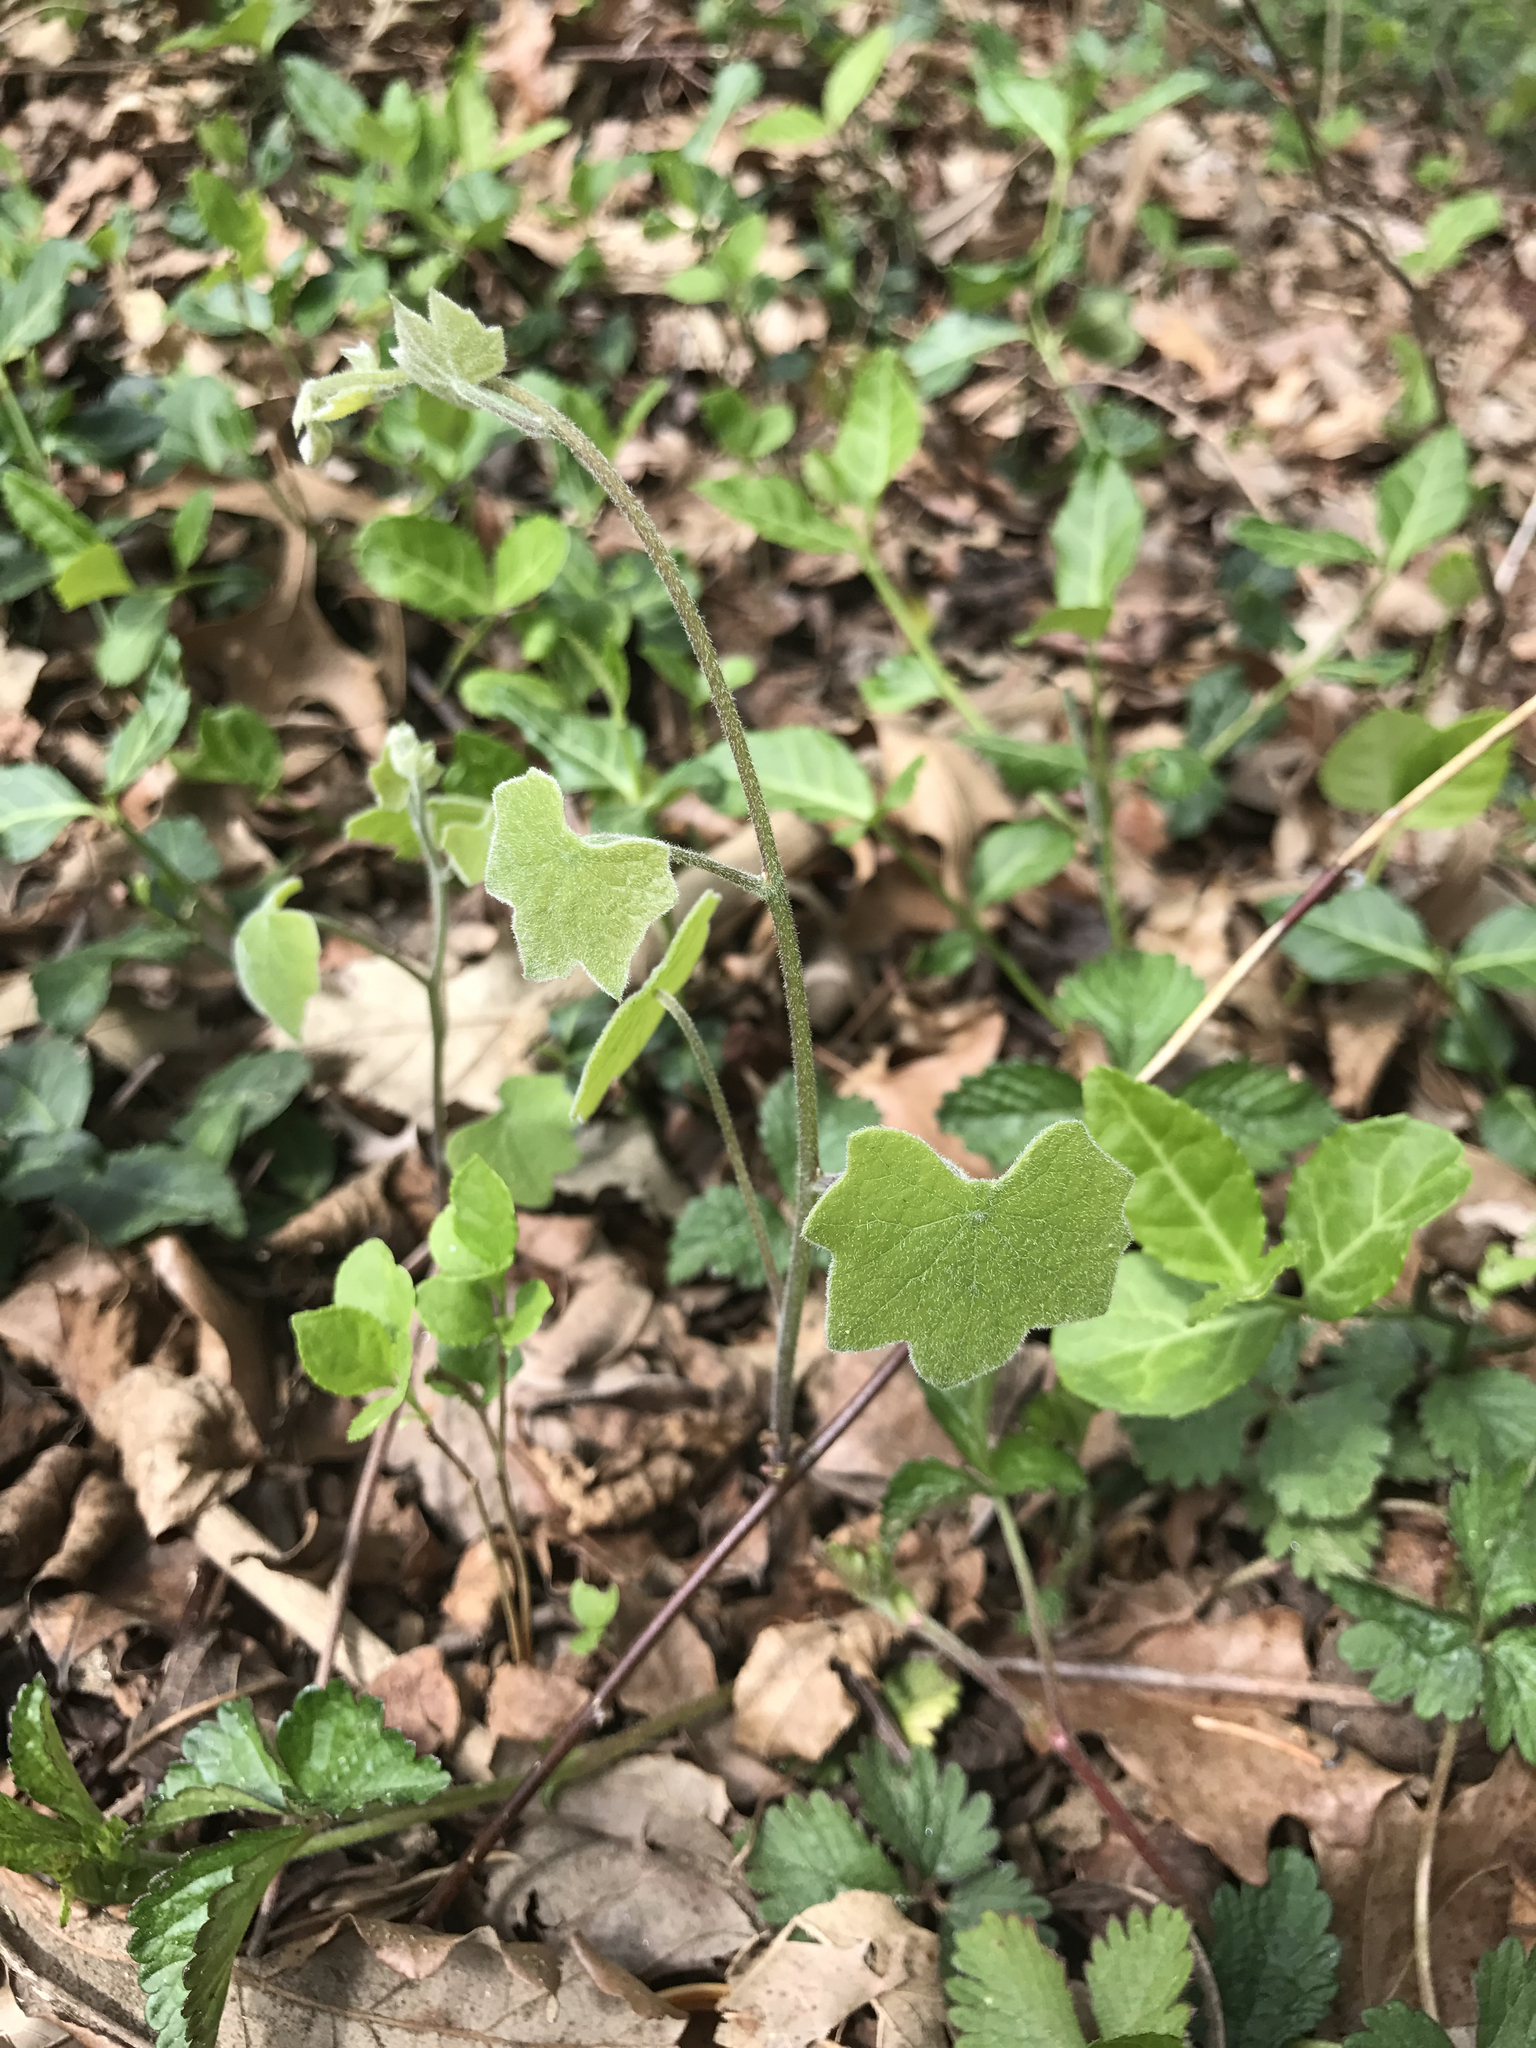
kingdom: Plantae
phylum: Tracheophyta
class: Magnoliopsida
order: Ranunculales
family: Menispermaceae
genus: Menispermum
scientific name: Menispermum canadense
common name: Moonseed
